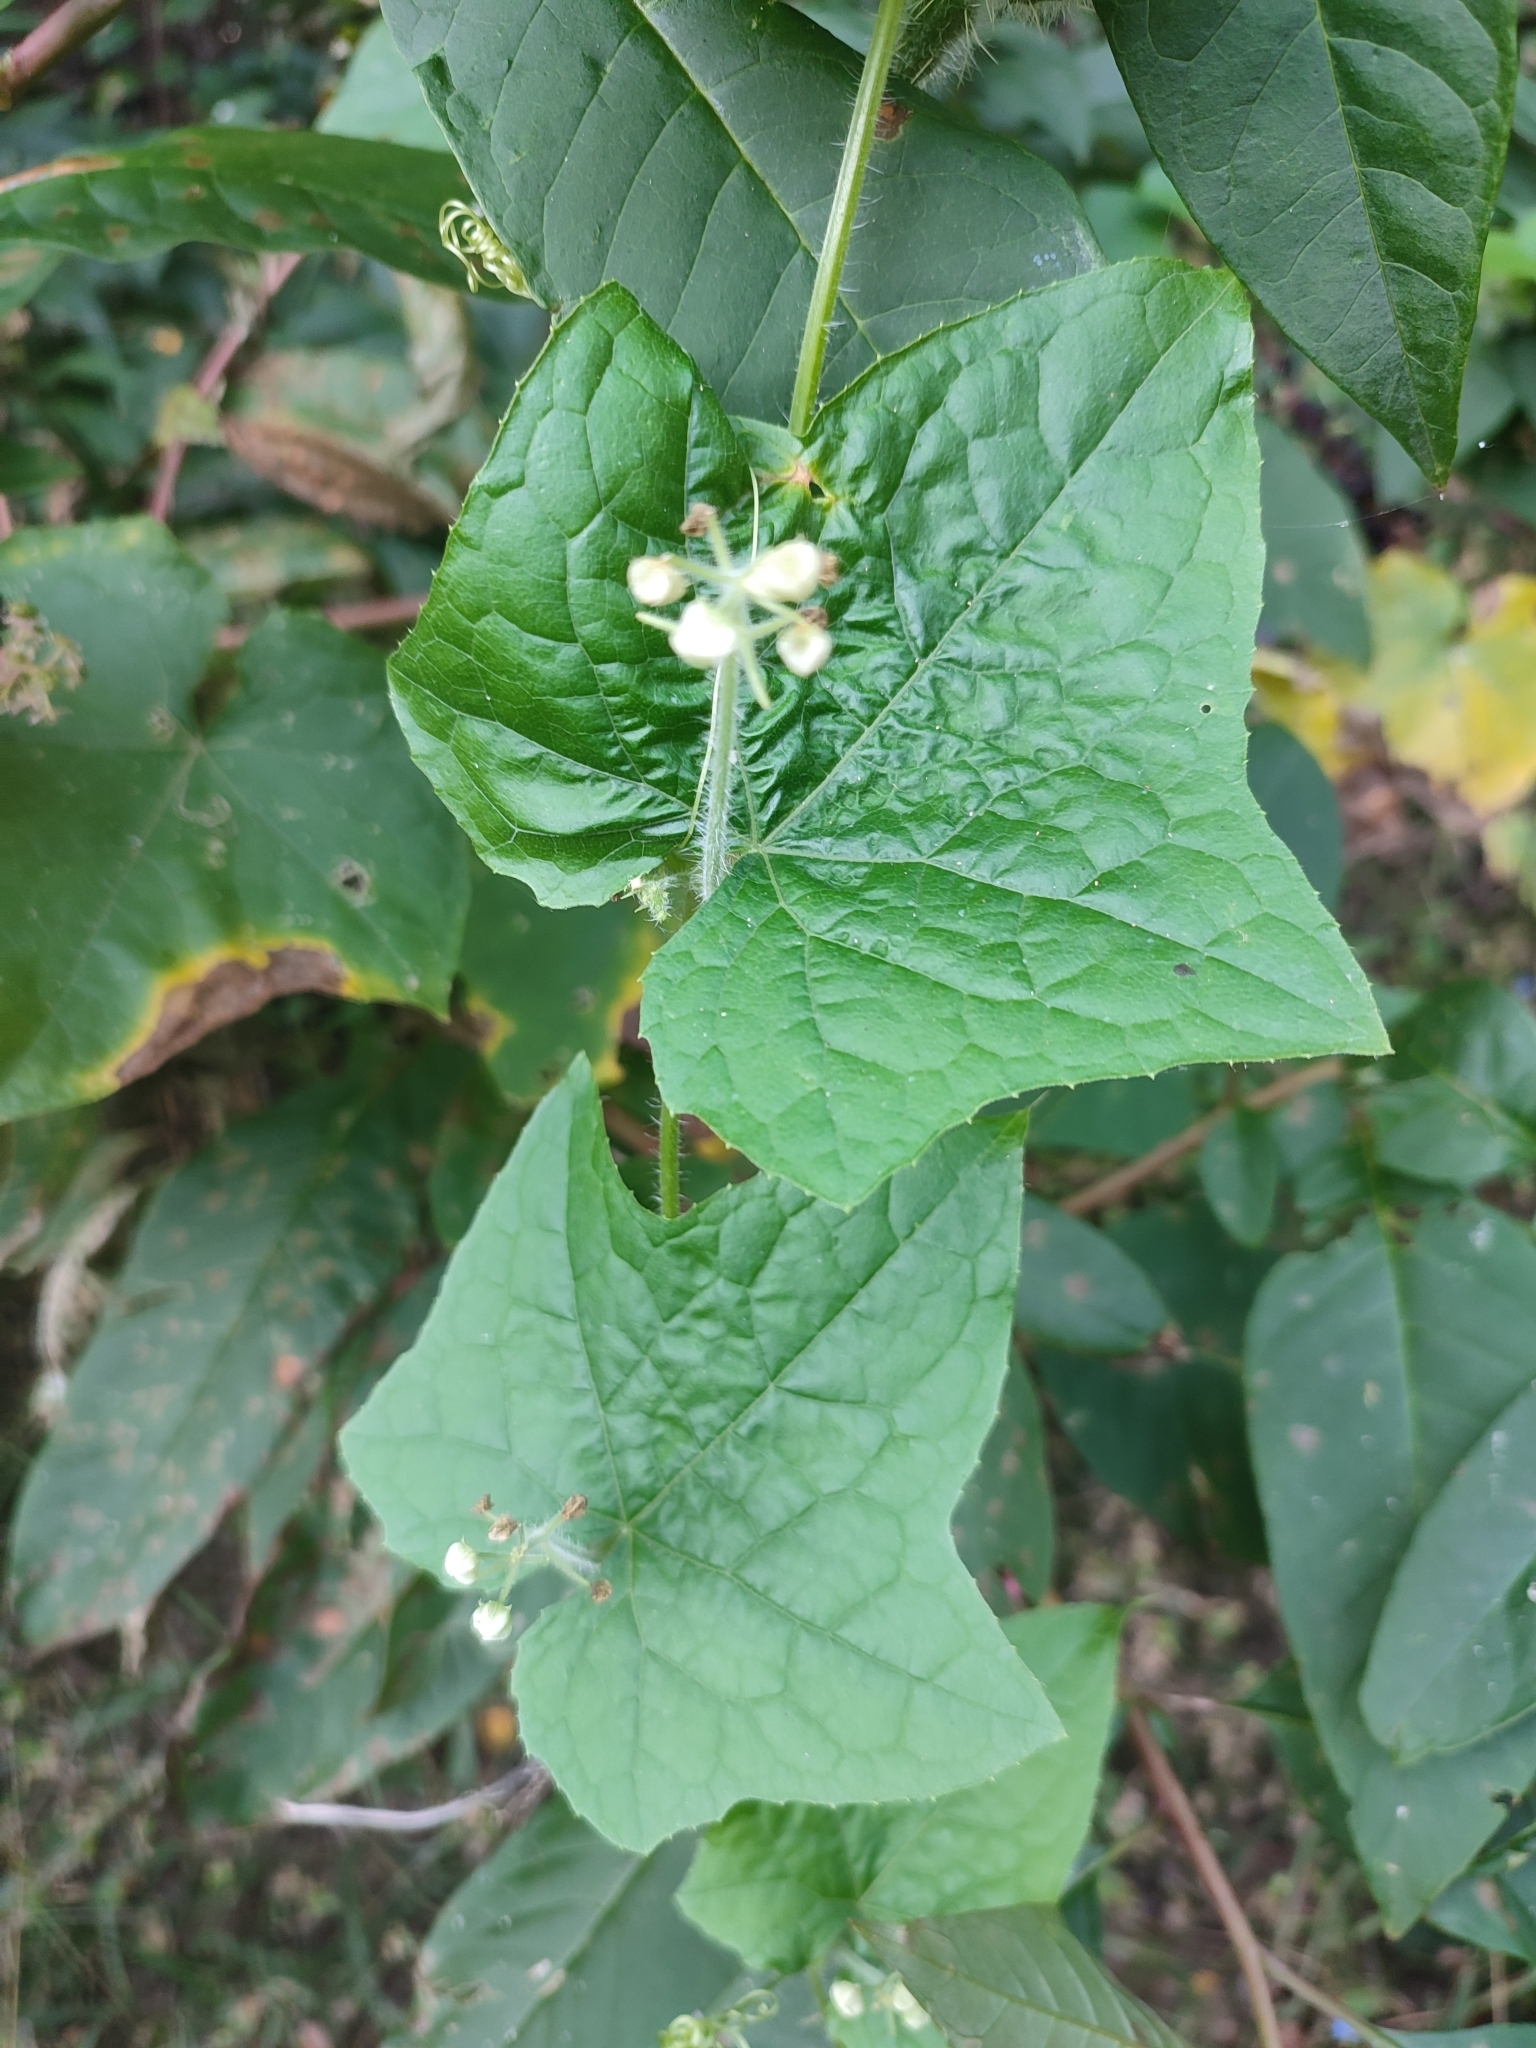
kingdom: Plantae
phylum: Tracheophyta
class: Magnoliopsida
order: Cucurbitales
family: Cucurbitaceae
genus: Sicyos
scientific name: Sicyos angulatus
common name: Angled burr cucumber
